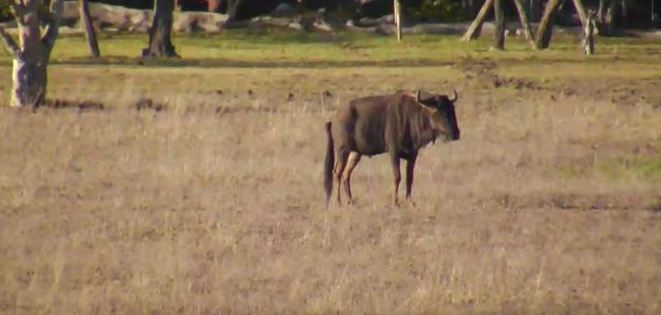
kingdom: Animalia
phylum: Chordata
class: Mammalia
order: Artiodactyla
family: Bovidae
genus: Connochaetes
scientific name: Connochaetes taurinus
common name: Blue wildebeest
